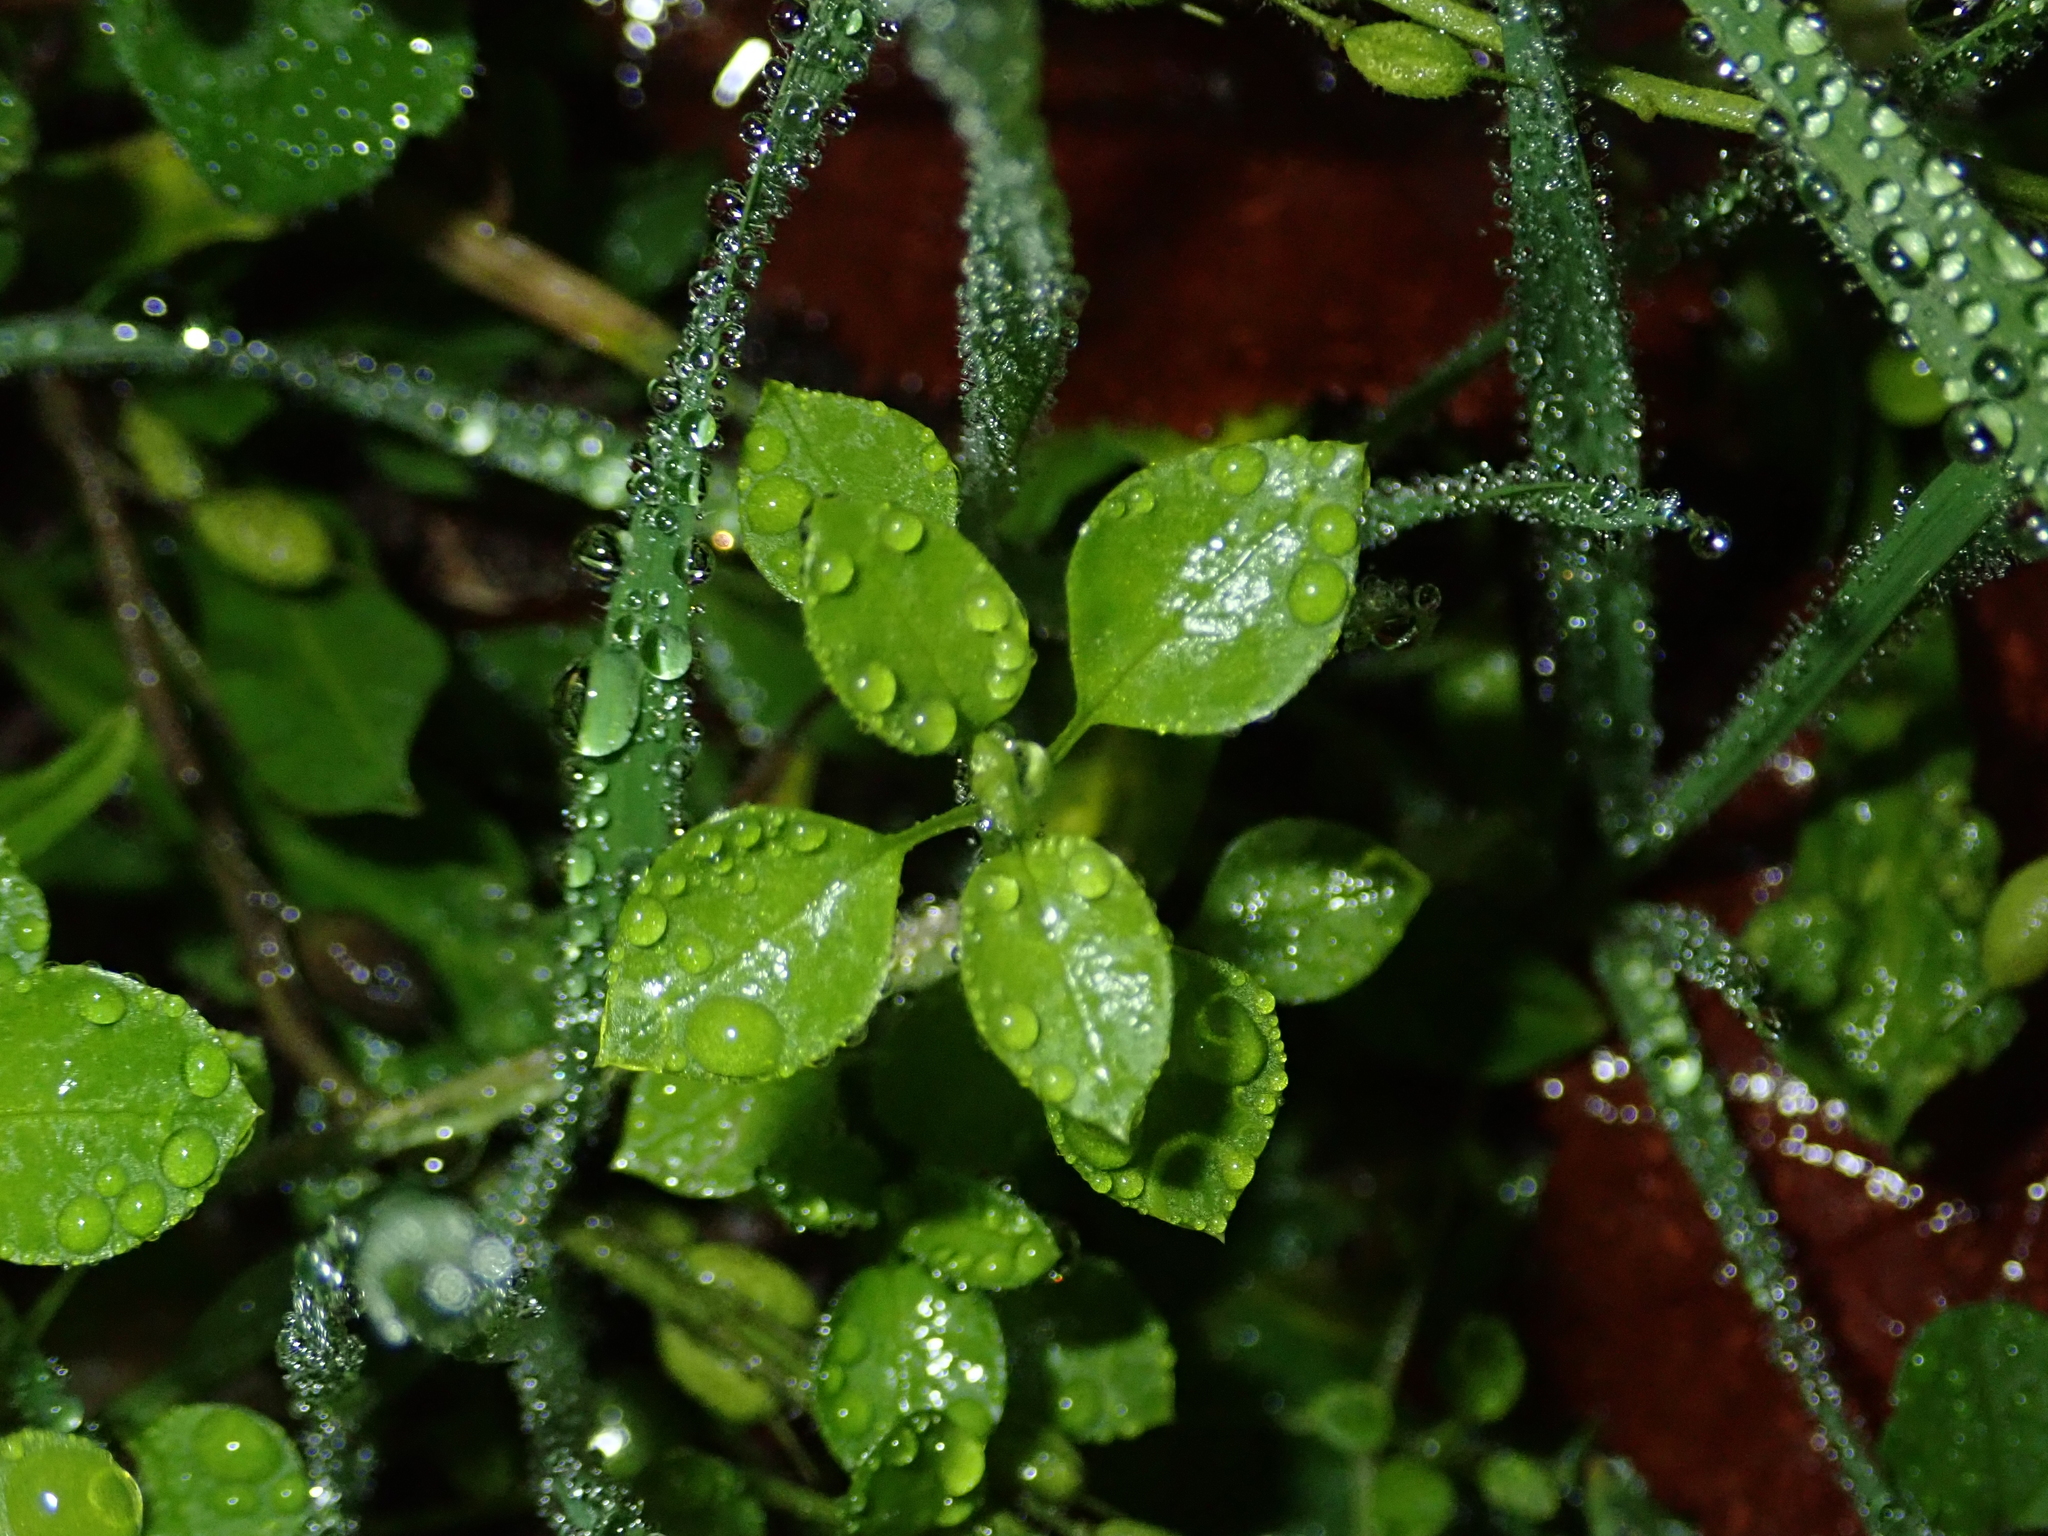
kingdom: Plantae
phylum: Tracheophyta
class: Magnoliopsida
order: Caryophyllales
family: Caryophyllaceae
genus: Stellaria
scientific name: Stellaria media
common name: Common chickweed
